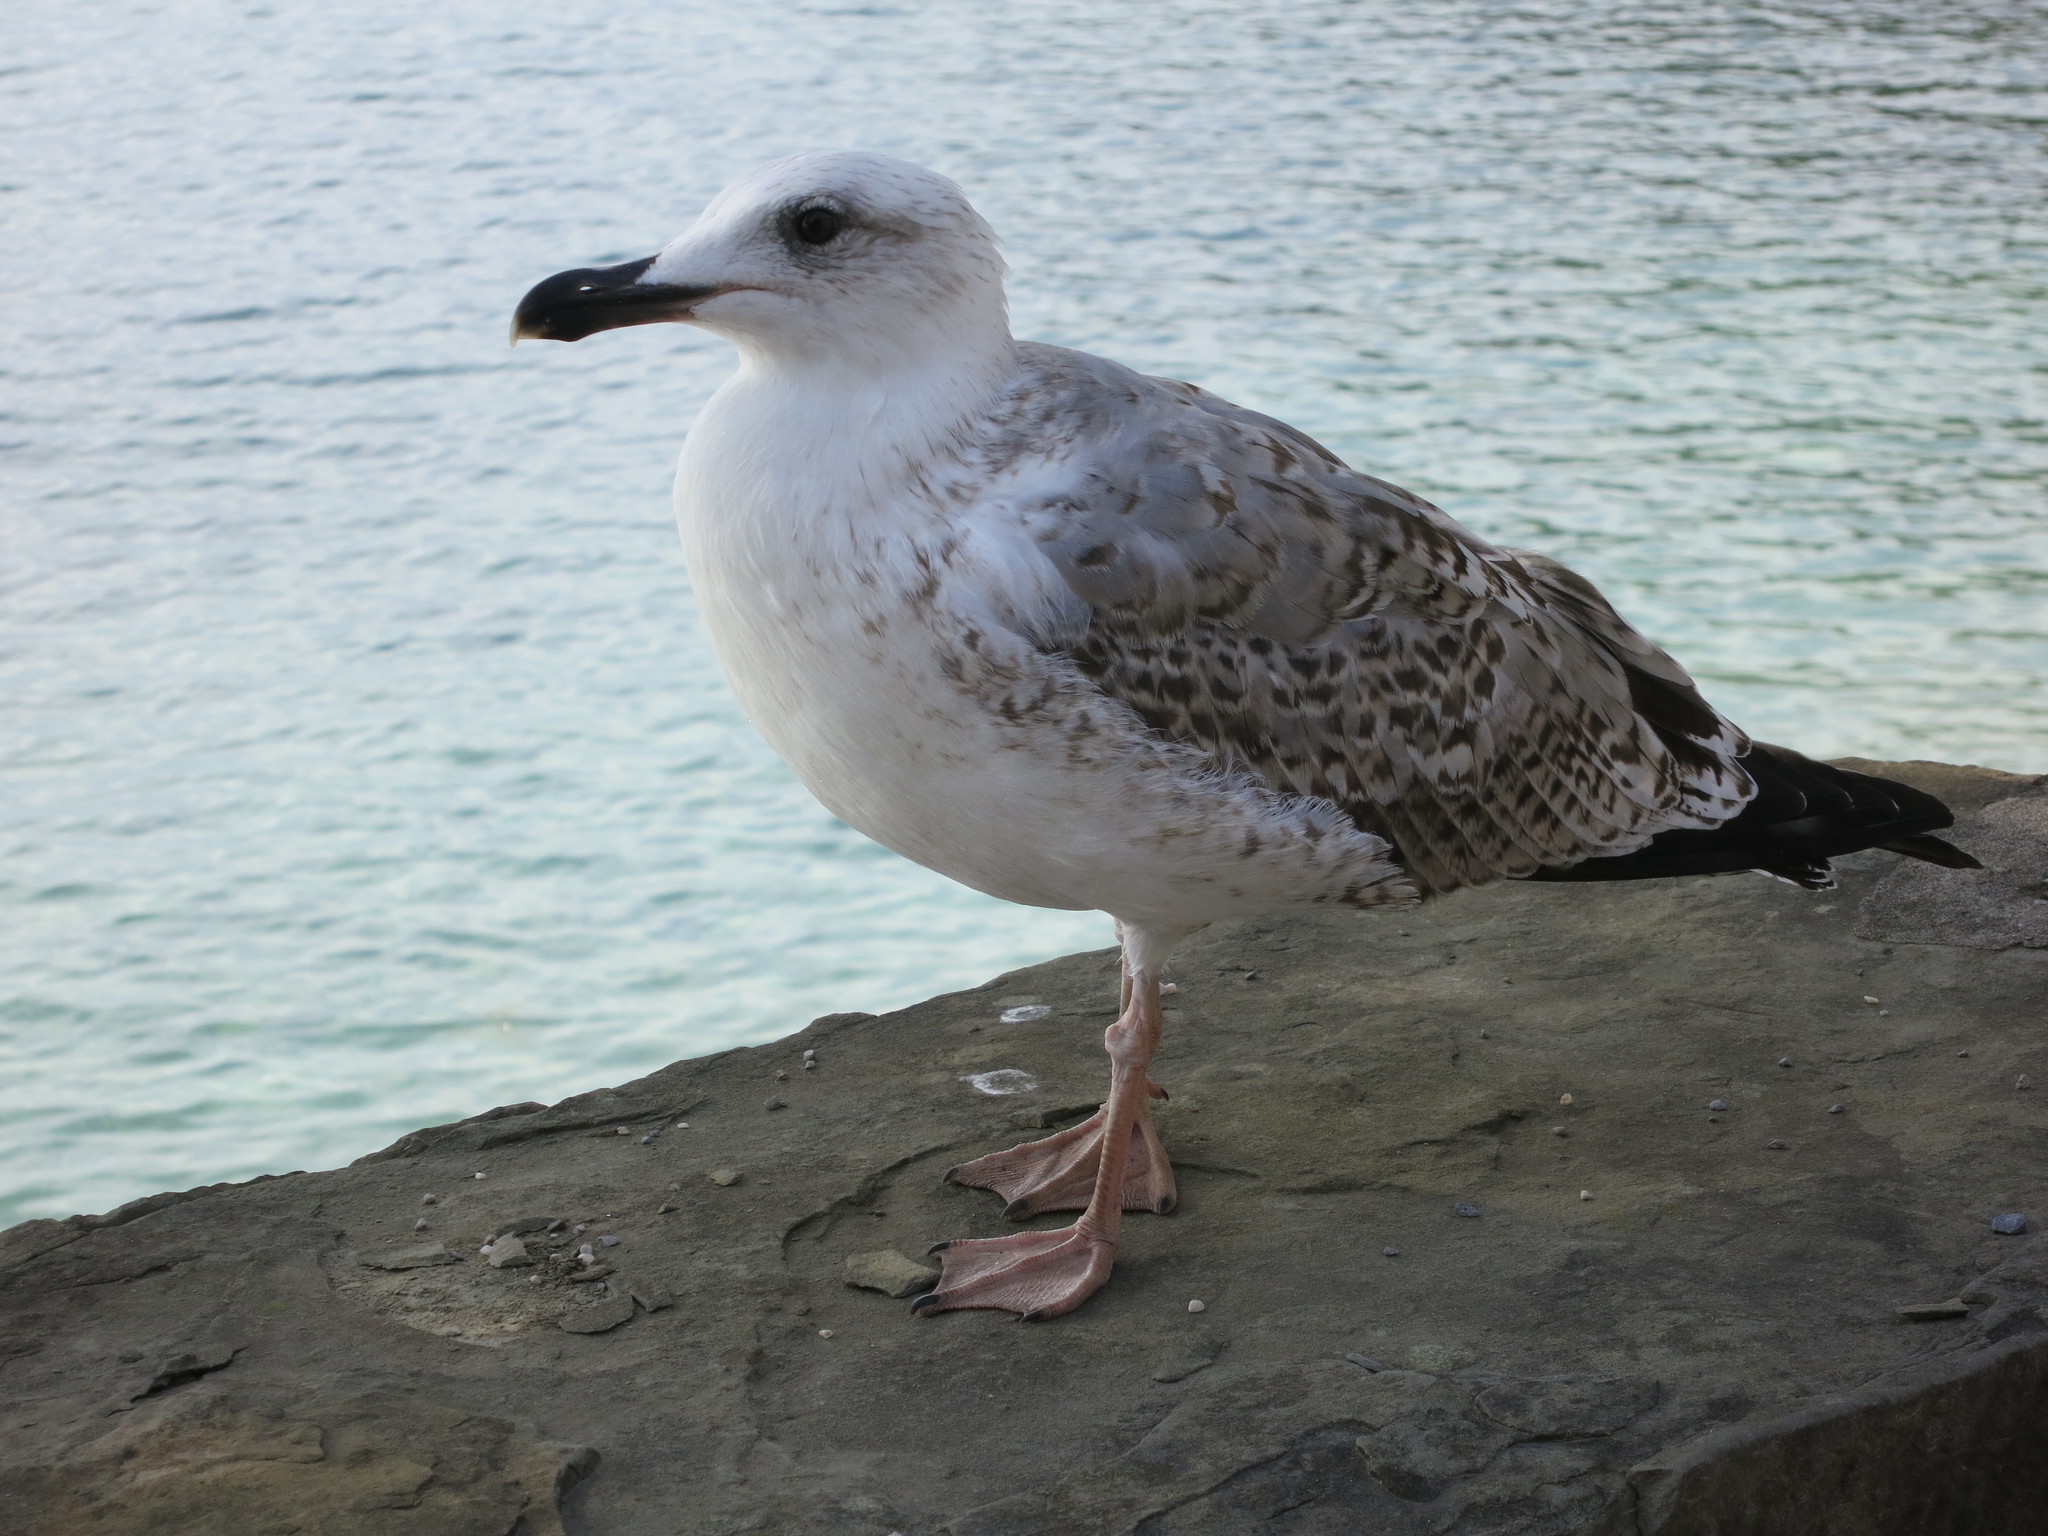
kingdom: Animalia
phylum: Chordata
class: Aves
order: Charadriiformes
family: Laridae
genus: Larus
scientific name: Larus michahellis
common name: Yellow-legged gull
